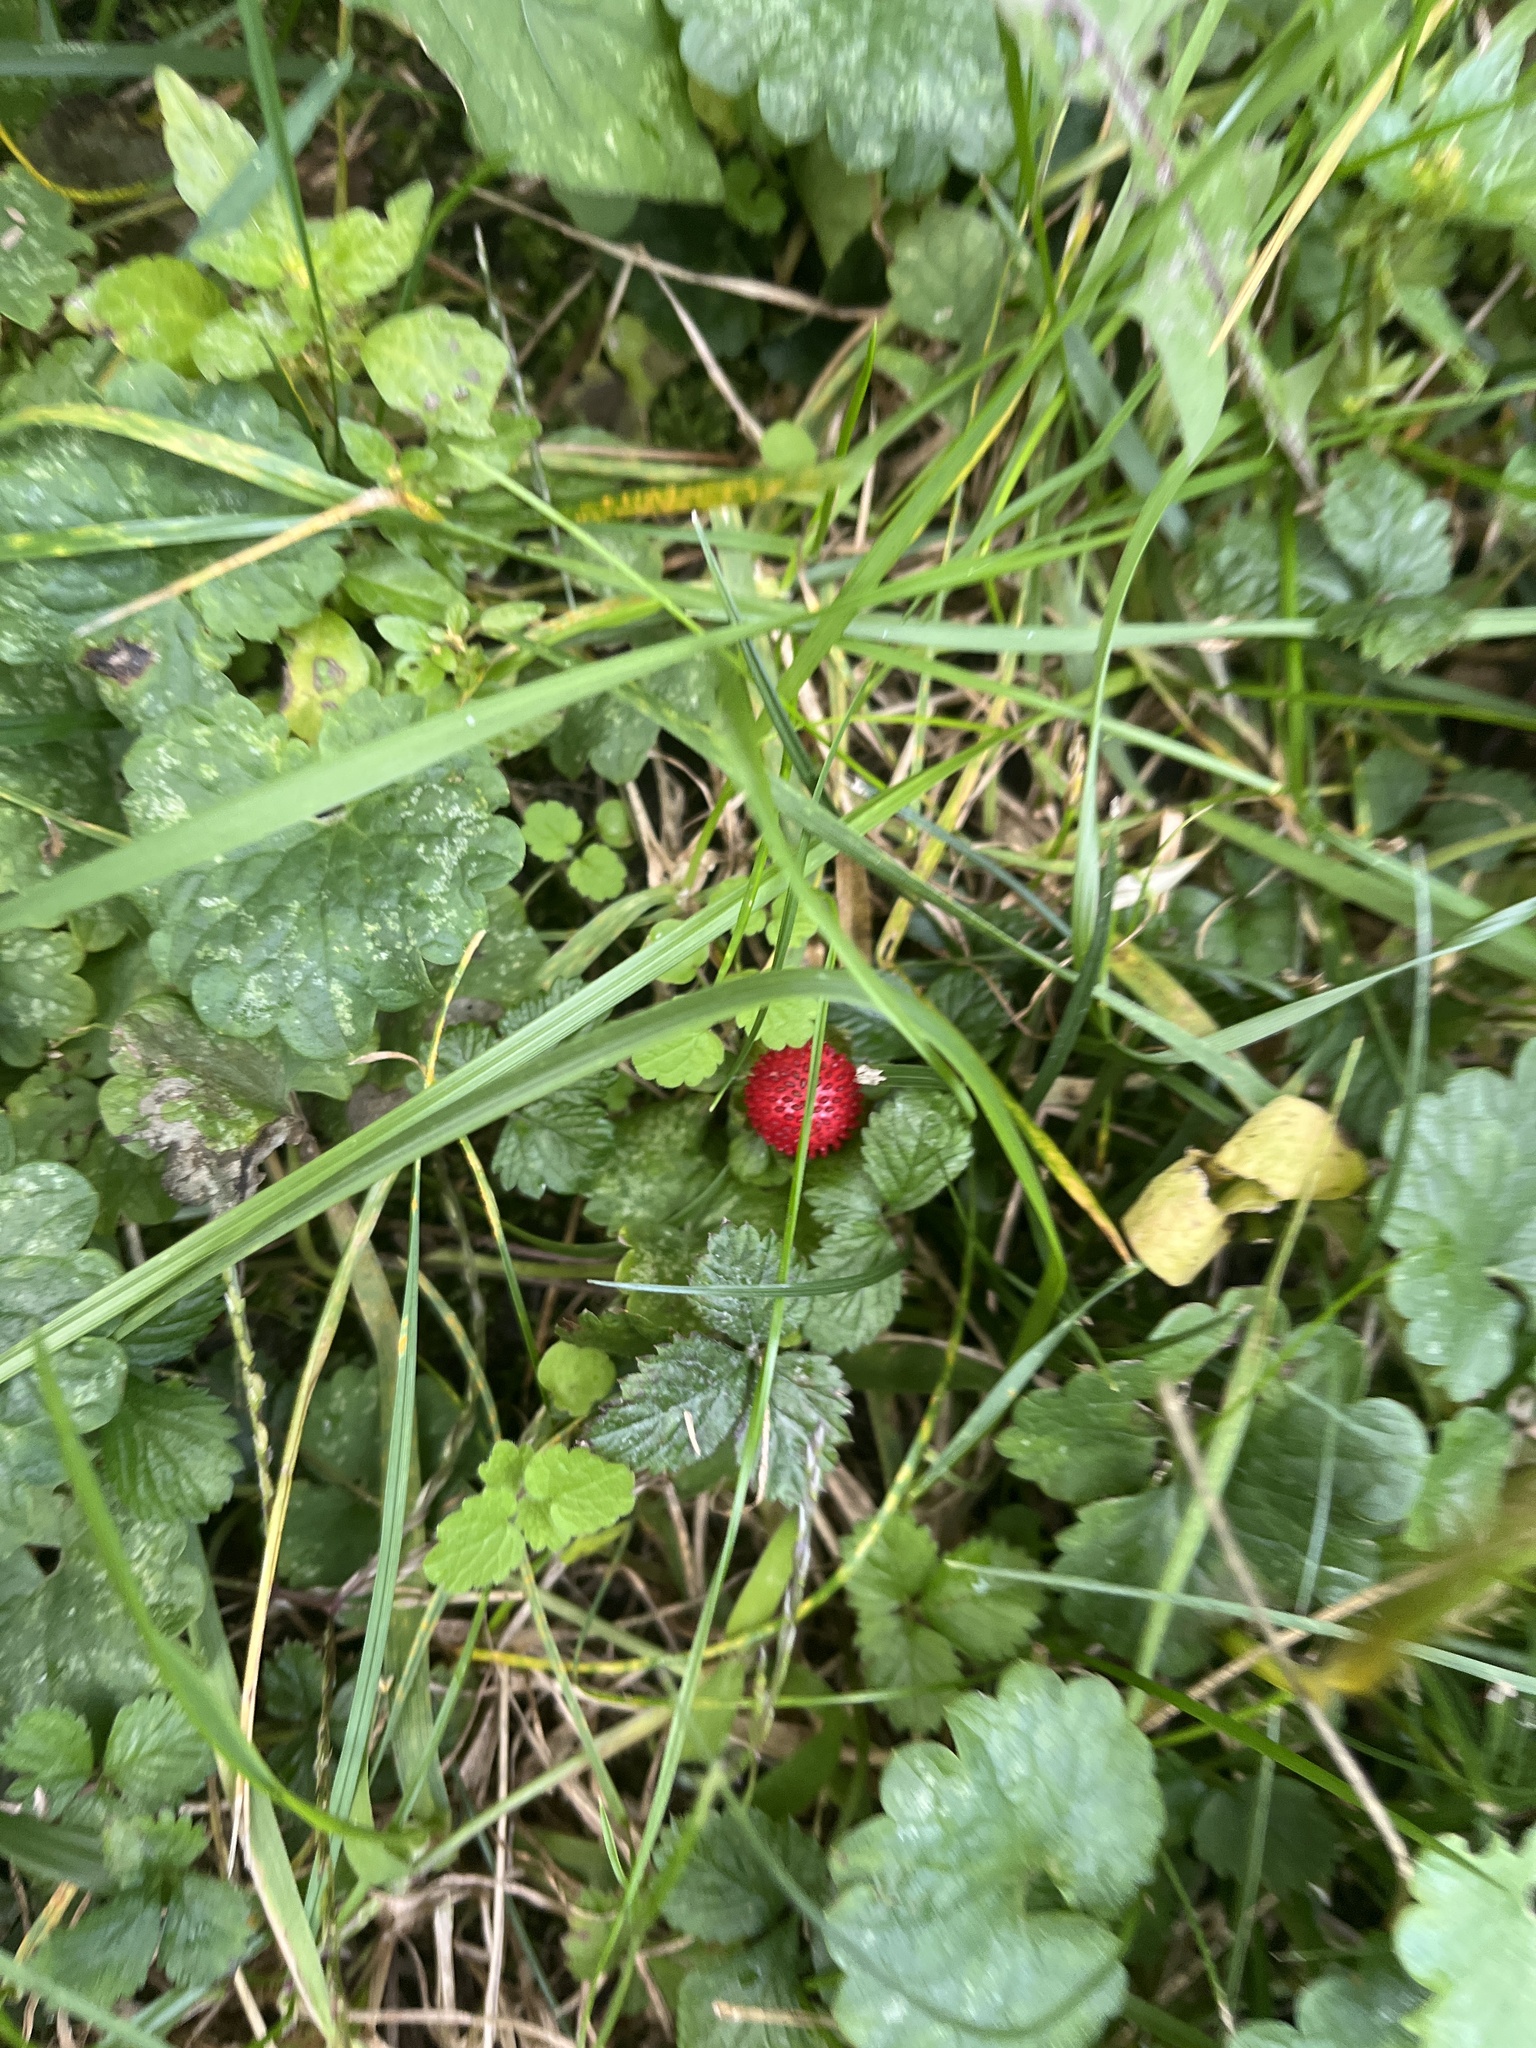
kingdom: Plantae
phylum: Tracheophyta
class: Magnoliopsida
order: Rosales
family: Rosaceae
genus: Potentilla
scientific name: Potentilla indica
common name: Yellow-flowered strawberry
